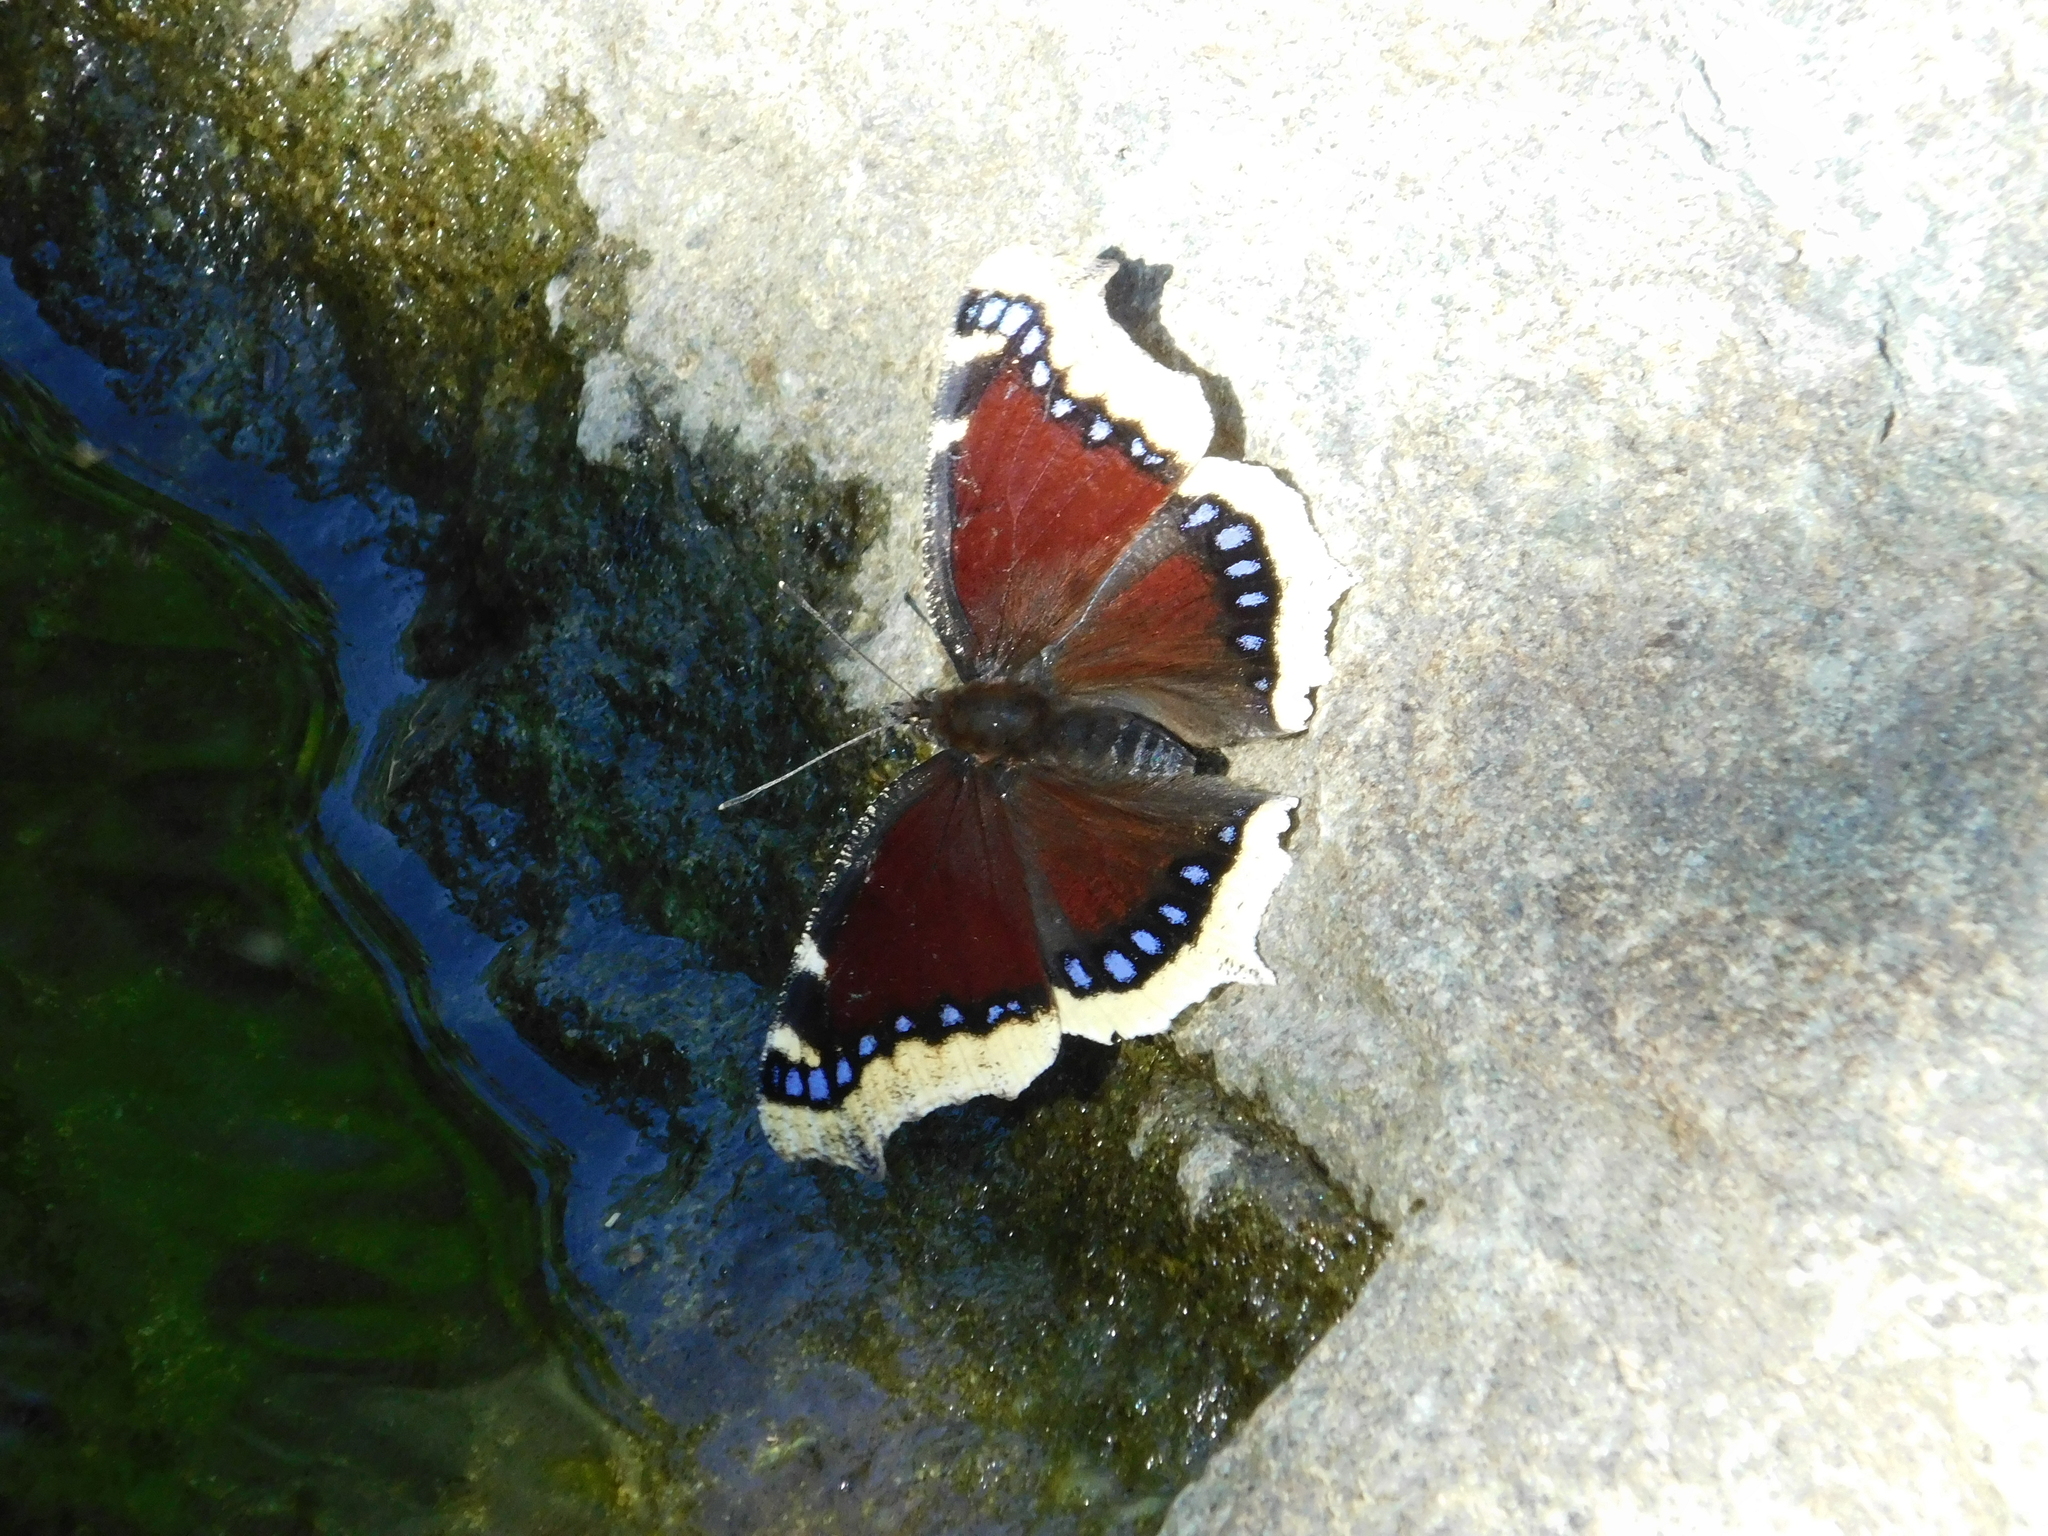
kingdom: Animalia
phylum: Arthropoda
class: Insecta
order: Lepidoptera
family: Nymphalidae
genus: Nymphalis
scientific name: Nymphalis antiopa
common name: Camberwell beauty
